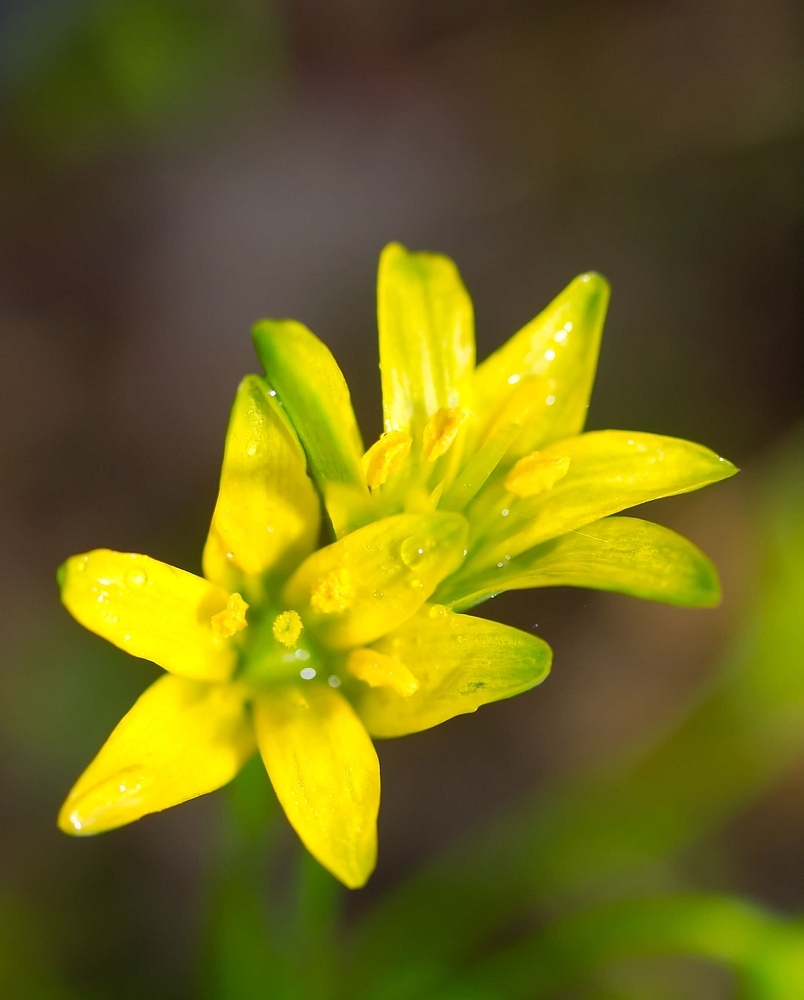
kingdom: Plantae
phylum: Tracheophyta
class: Liliopsida
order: Liliales
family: Liliaceae
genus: Gagea
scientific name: Gagea lutea
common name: Yellow star-of-bethlehem
